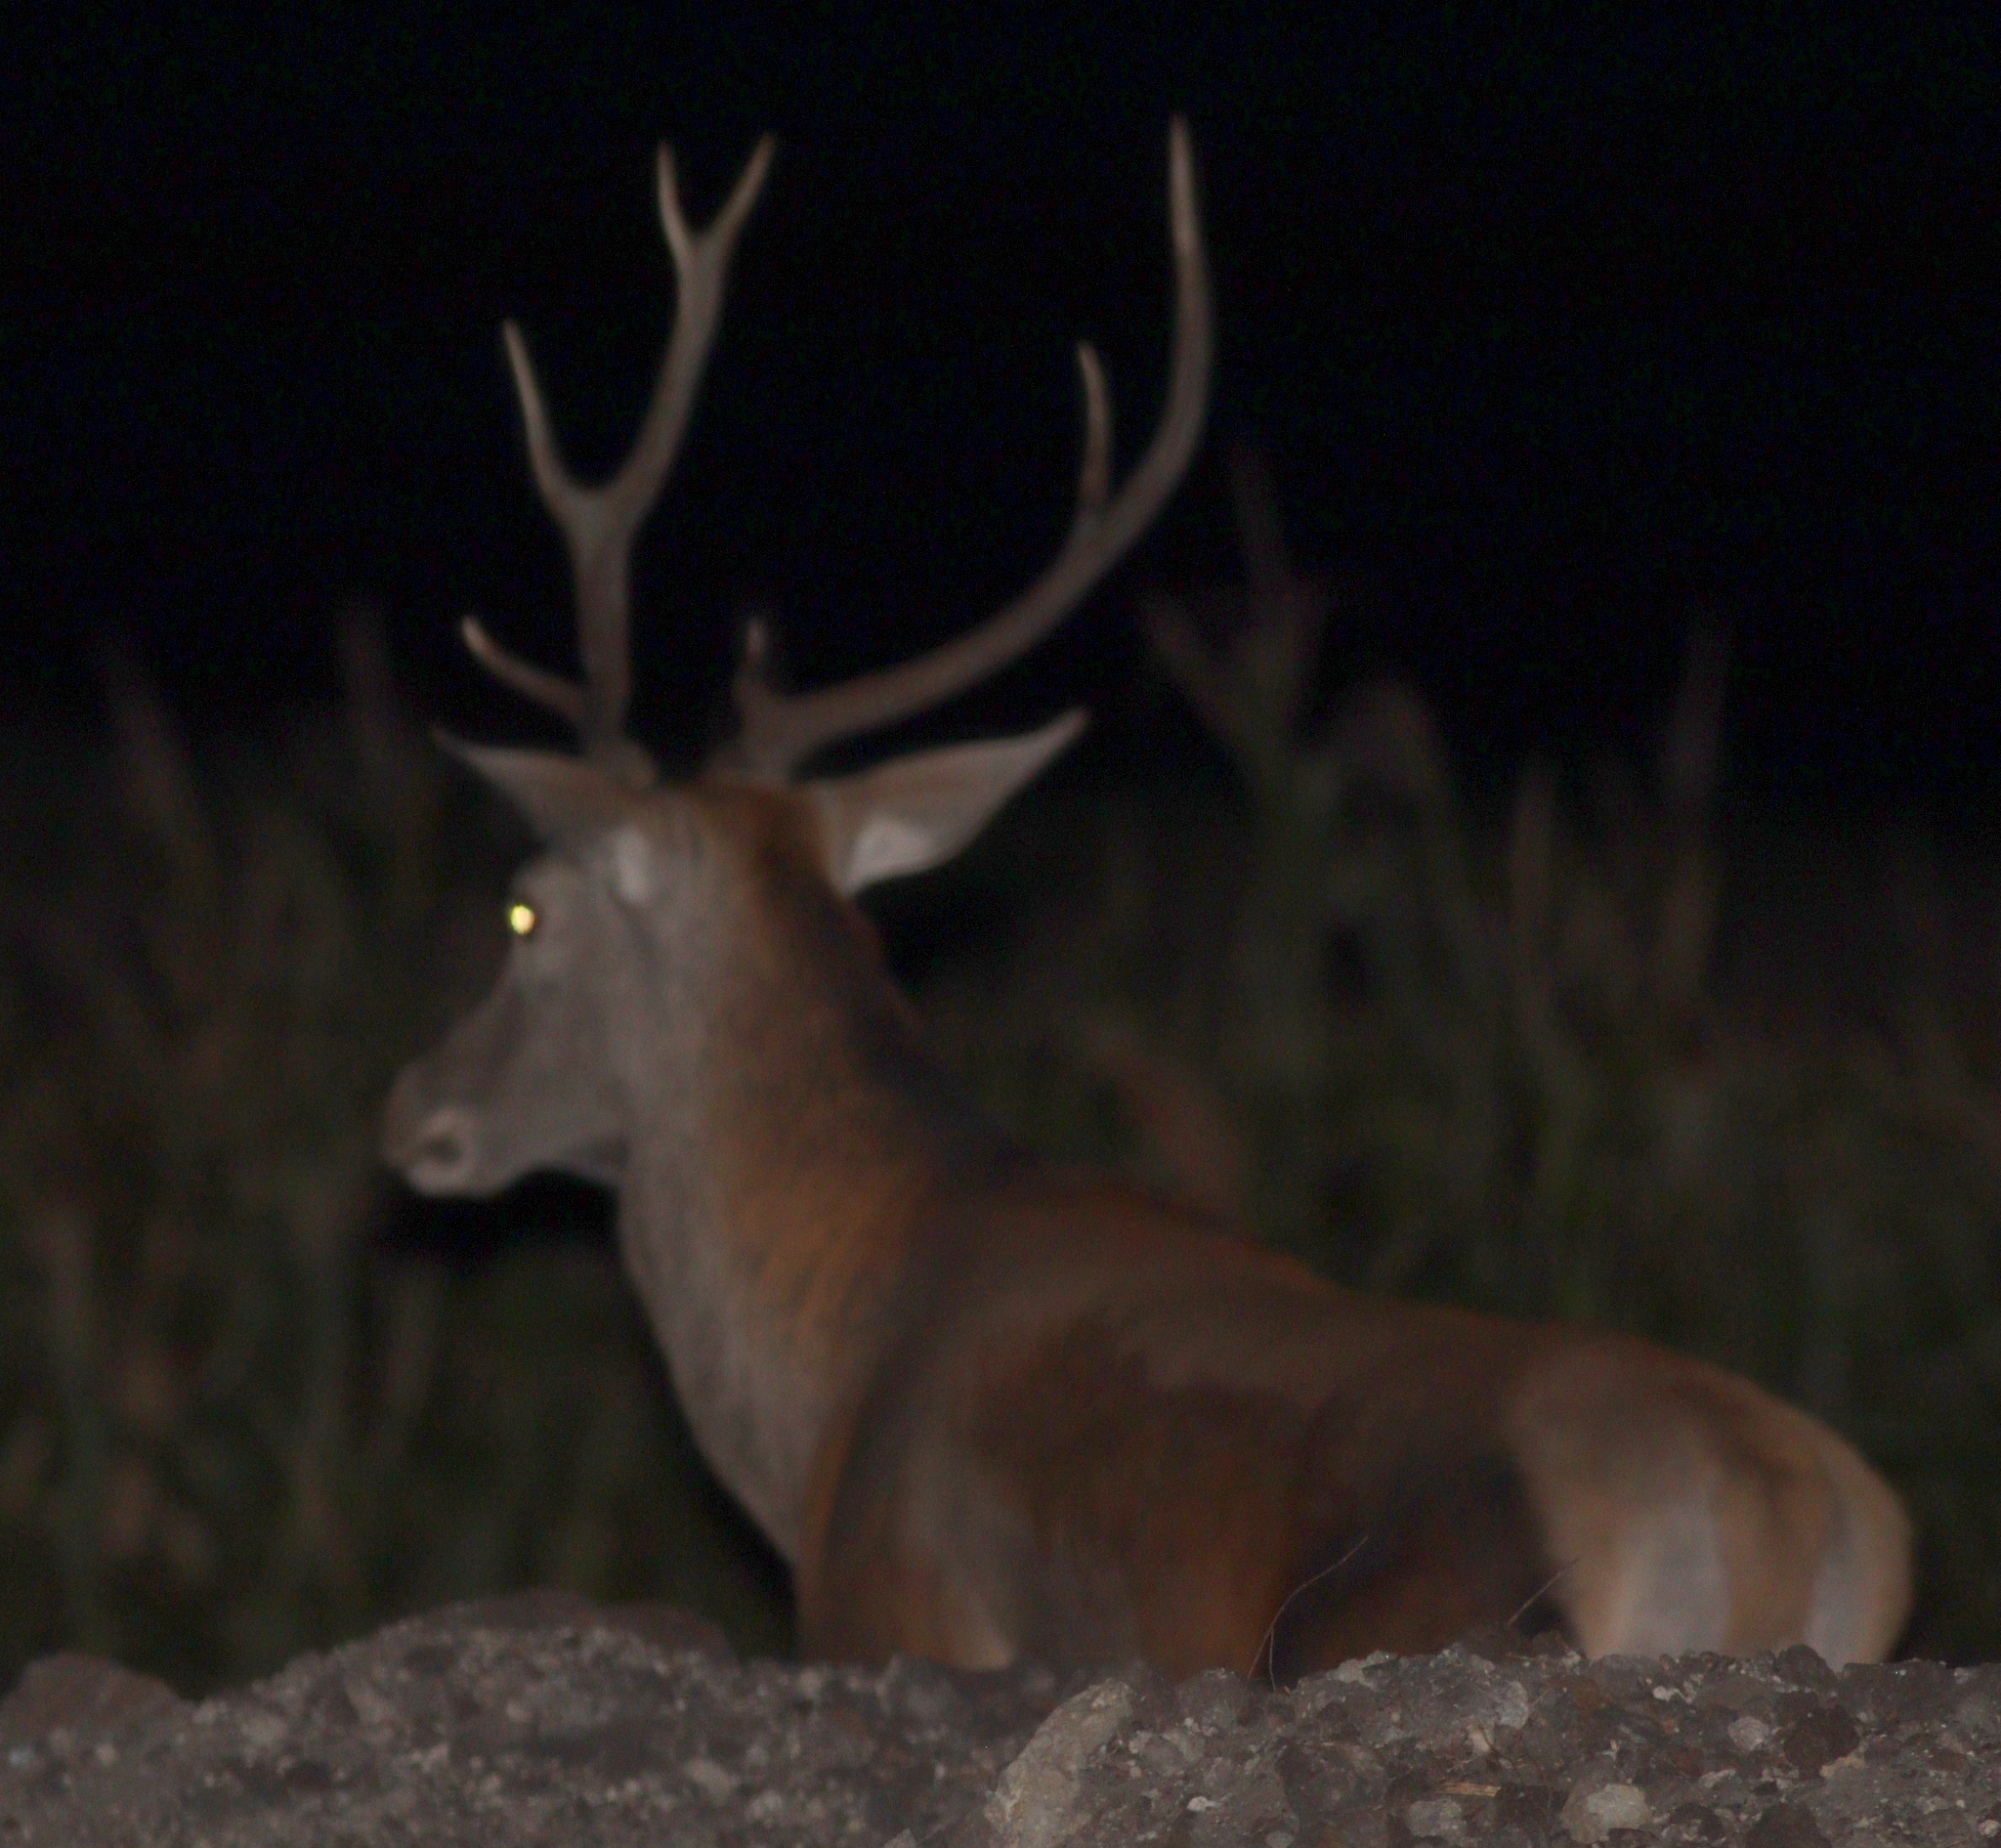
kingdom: Animalia
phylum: Chordata
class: Mammalia
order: Artiodactyla
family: Cervidae
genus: Cervus
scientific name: Cervus elaphus
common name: Red deer
